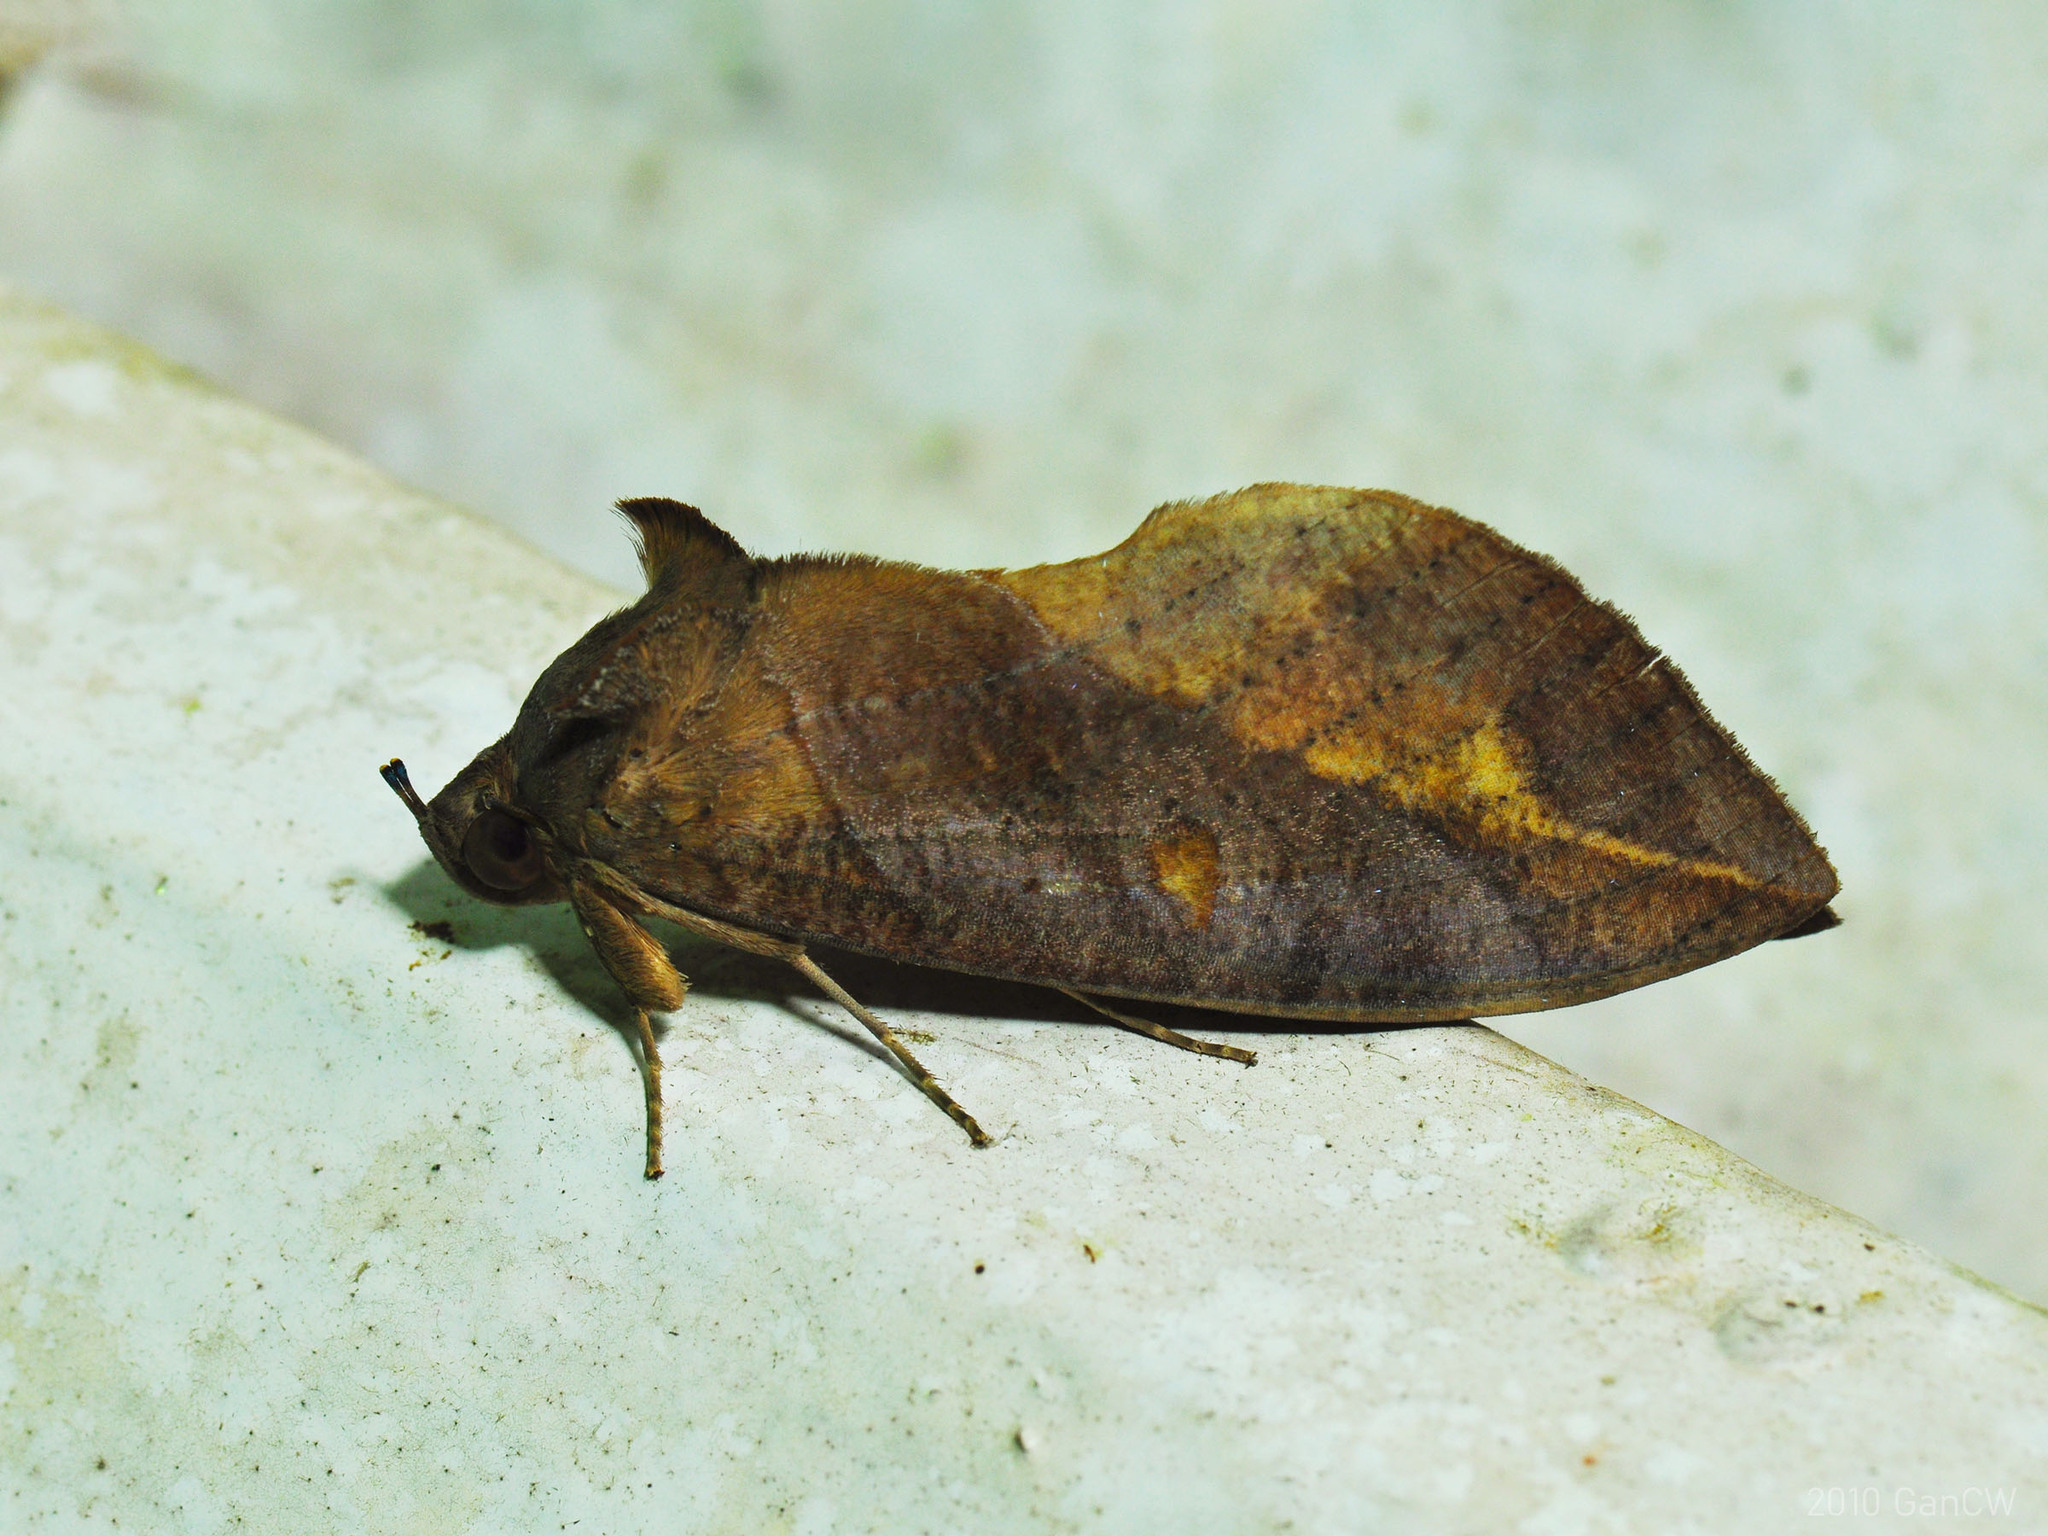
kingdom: Animalia
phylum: Arthropoda
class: Insecta
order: Lepidoptera
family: Erebidae
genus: Eudocima
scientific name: Eudocima phalonia
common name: Wasp
